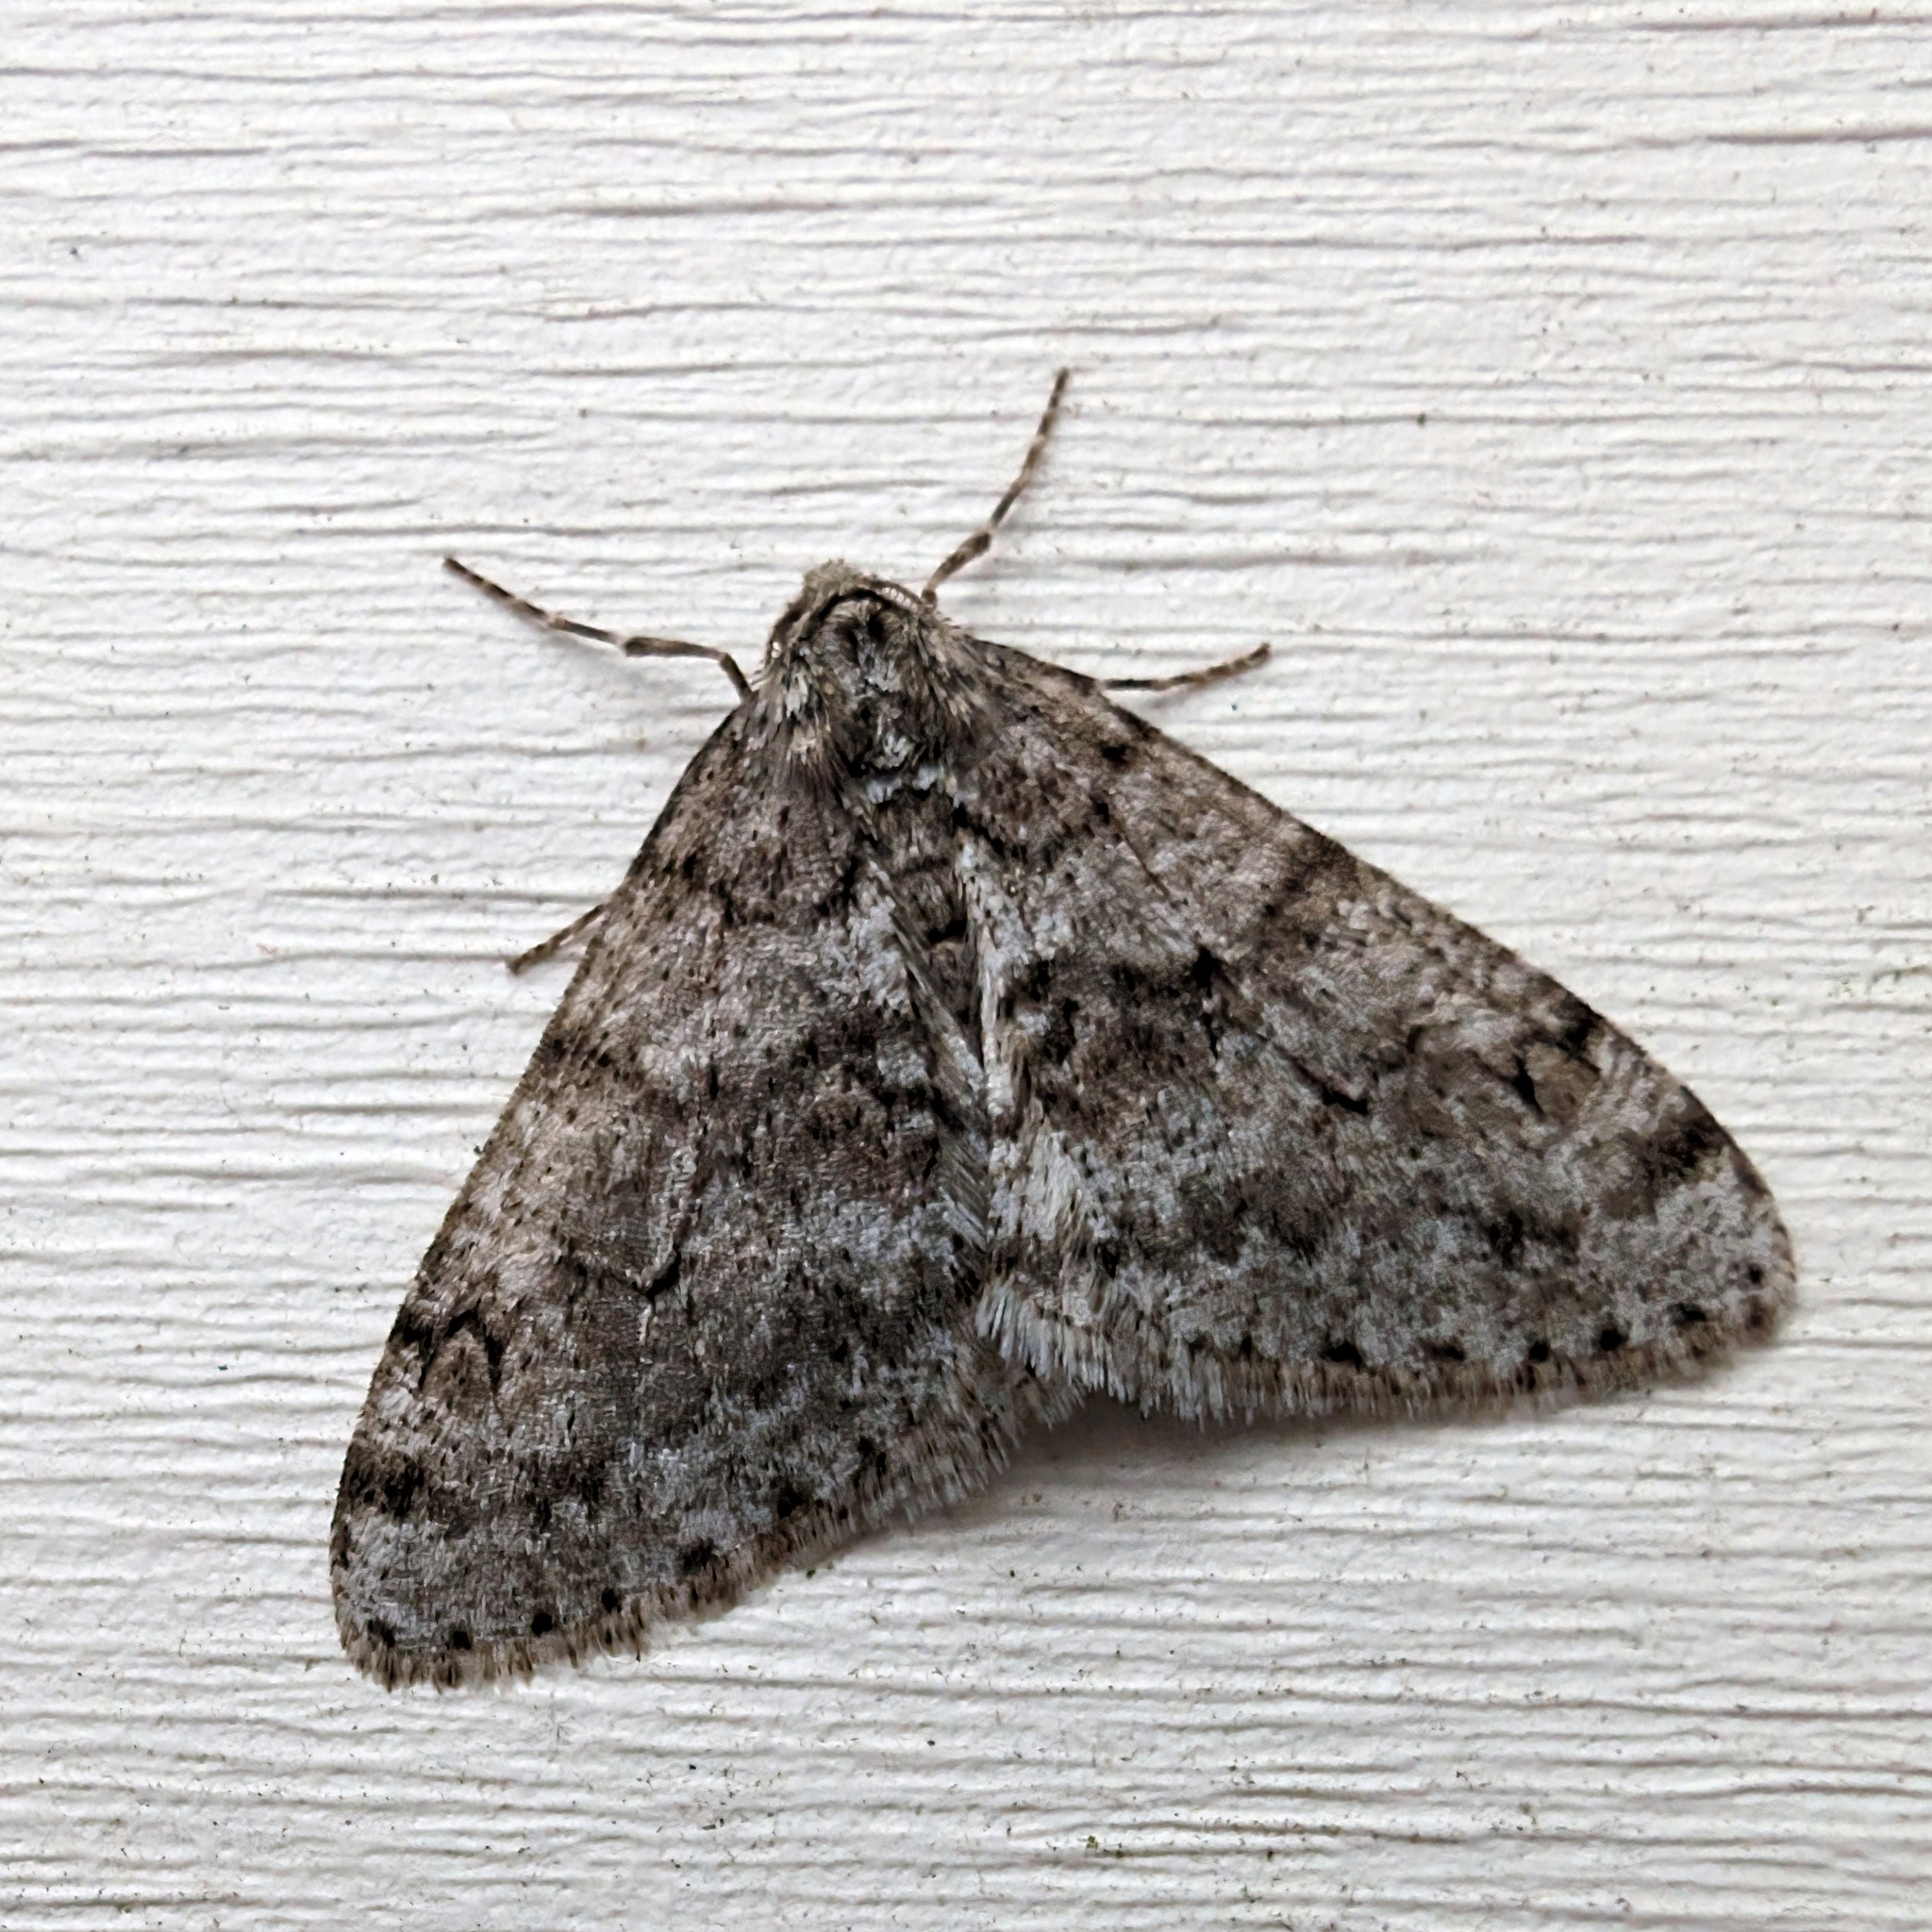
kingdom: Animalia
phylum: Arthropoda
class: Insecta
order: Lepidoptera
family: Geometridae
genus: Phigalia
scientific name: Phigalia denticulata
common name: Toothed phigalia
